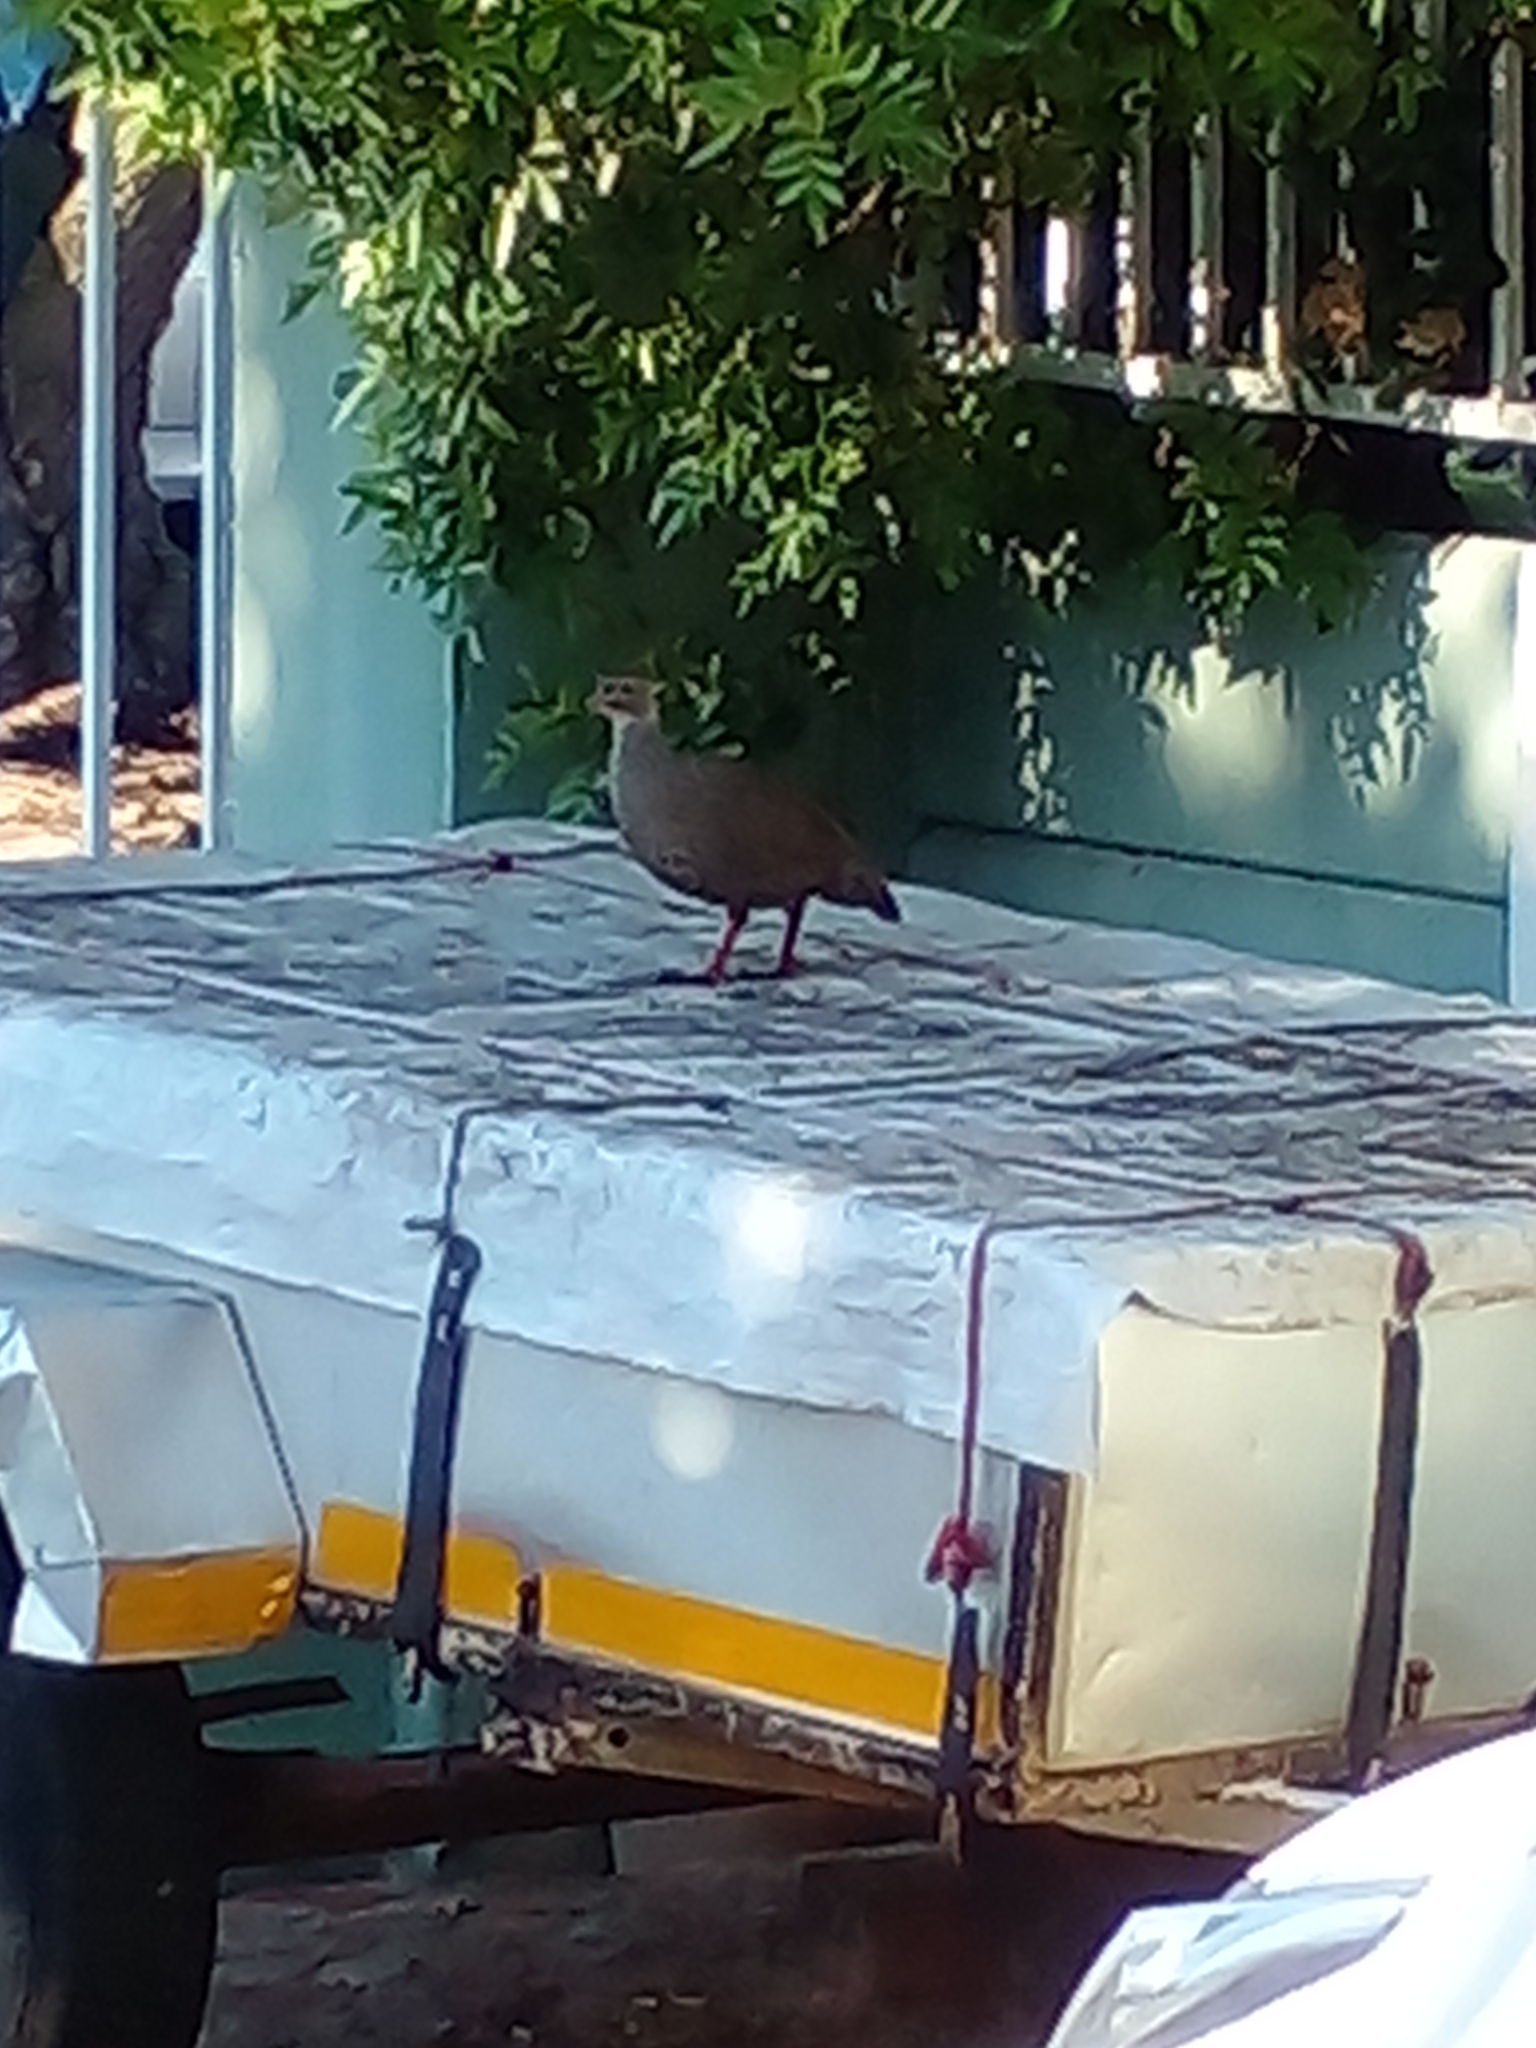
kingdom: Animalia
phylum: Chordata
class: Aves
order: Galliformes
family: Phasianidae
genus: Pternistis
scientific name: Pternistis capensis
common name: Cape spurfowl
